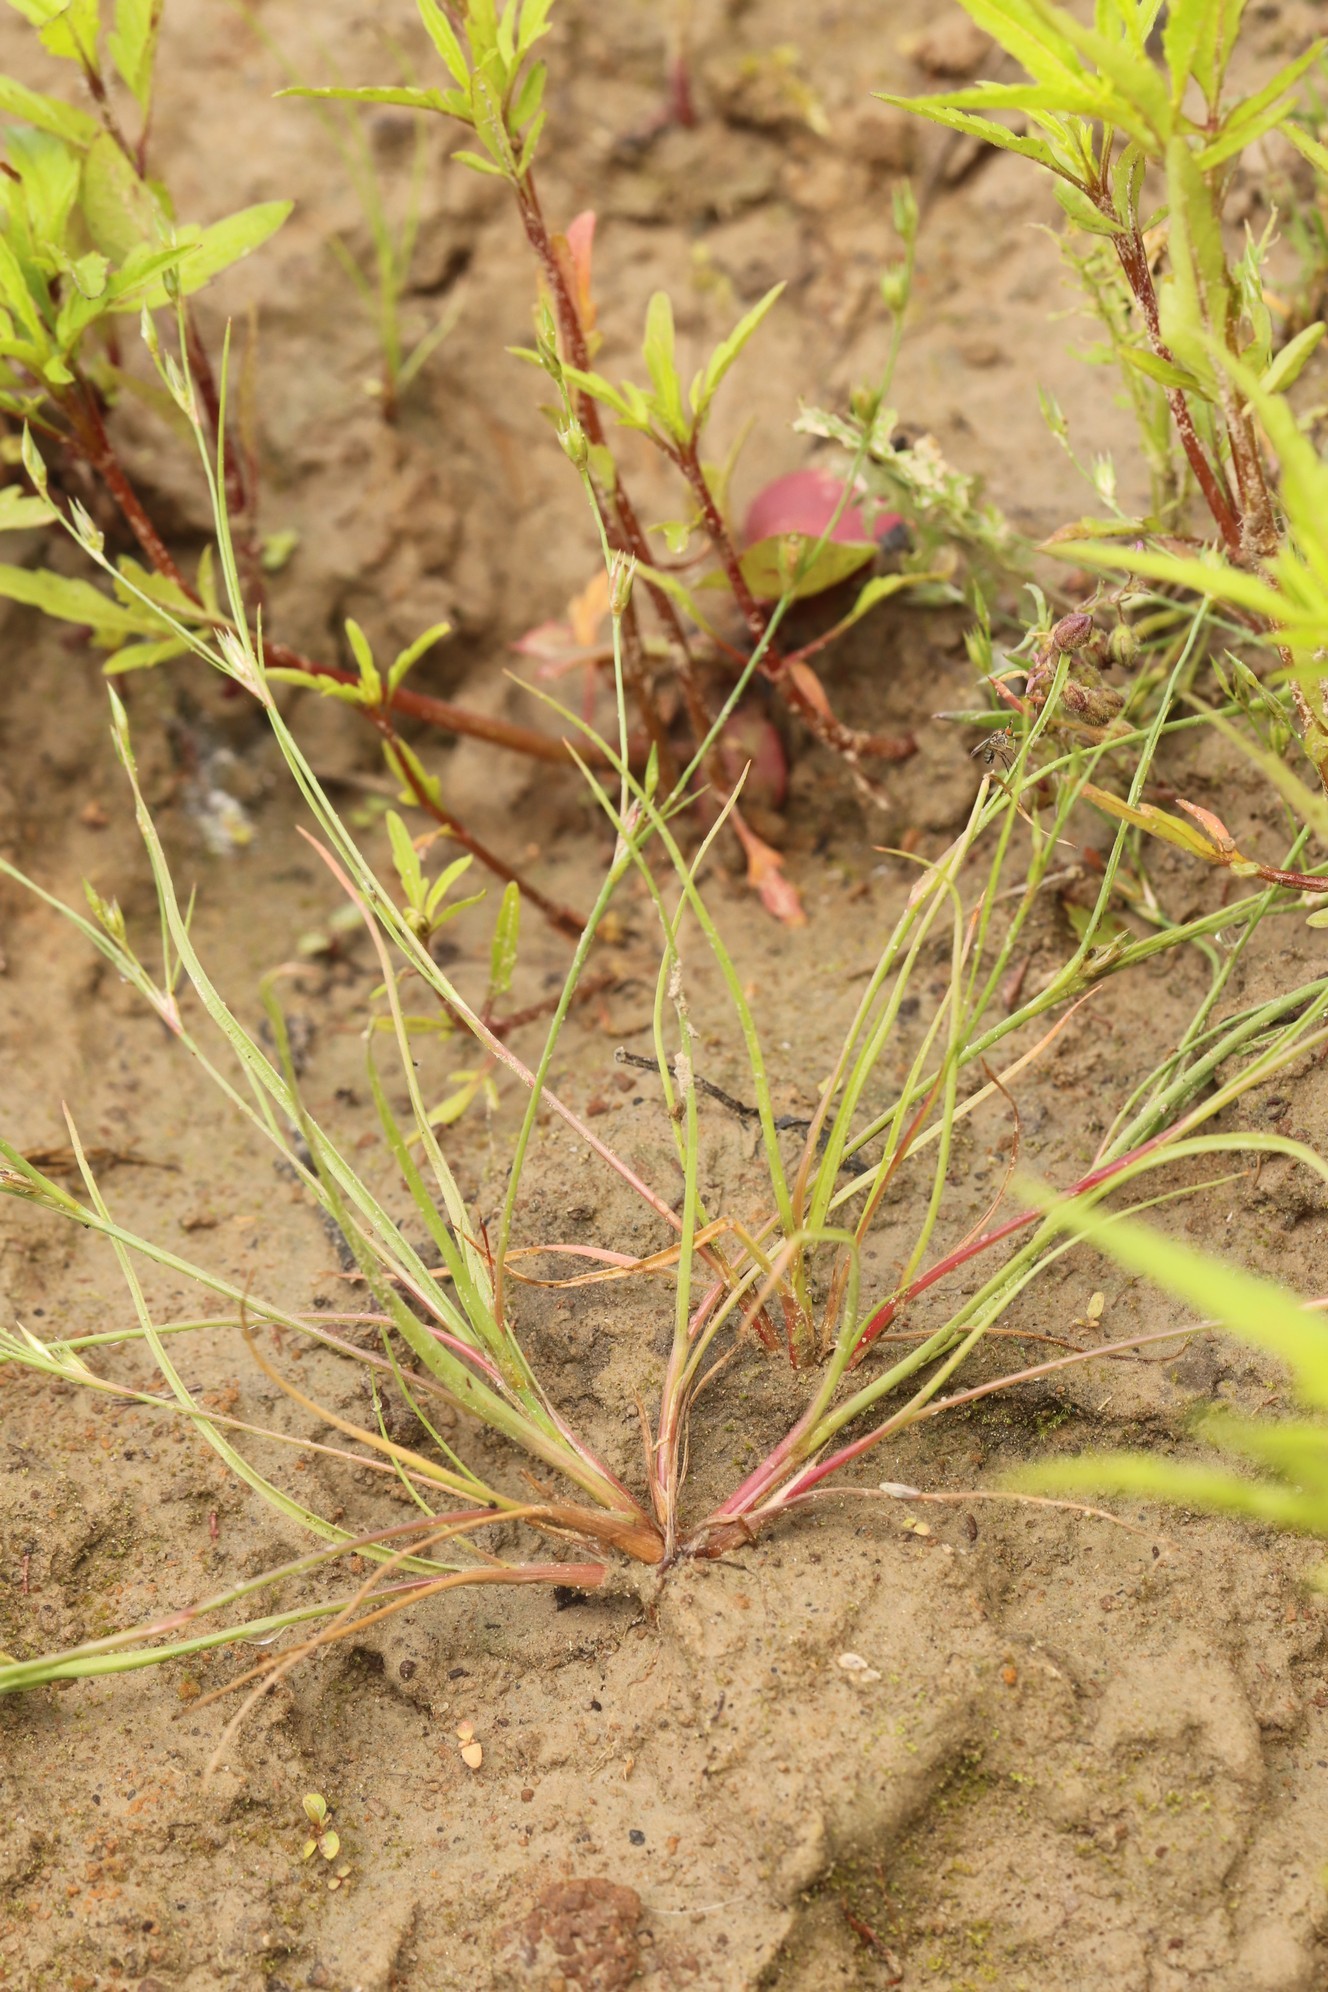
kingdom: Plantae
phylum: Tracheophyta
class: Liliopsida
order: Poales
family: Juncaceae
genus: Juncus
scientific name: Juncus bufonius
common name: Toad rush
